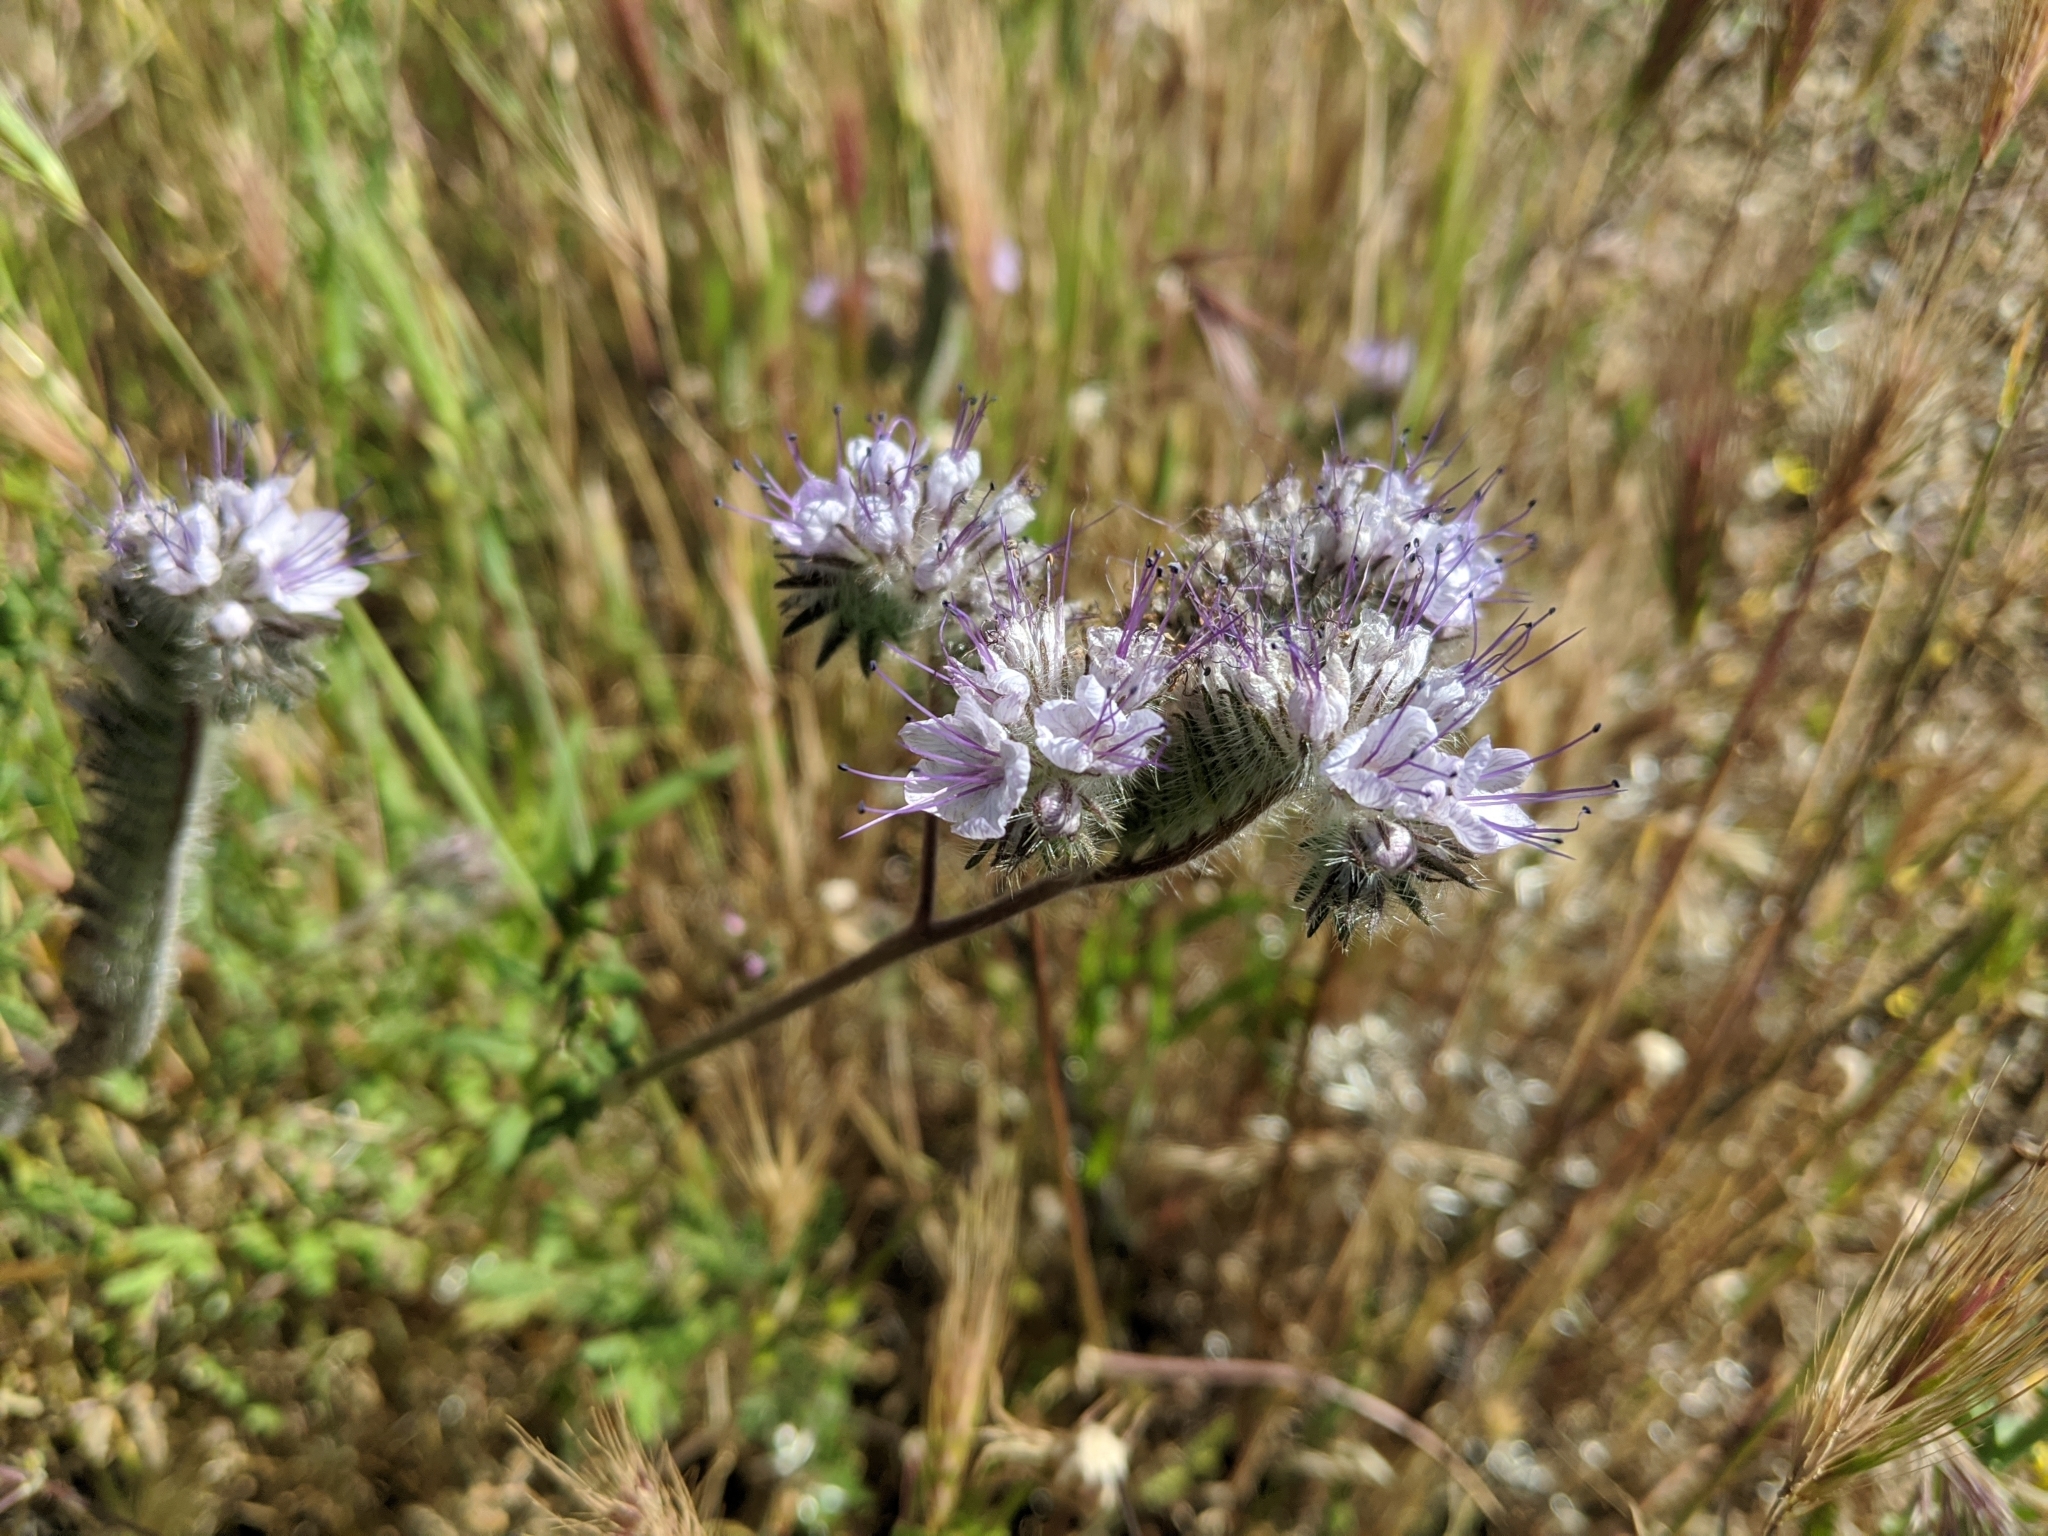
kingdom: Plantae
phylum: Tracheophyta
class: Magnoliopsida
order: Boraginales
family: Hydrophyllaceae
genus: Phacelia
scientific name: Phacelia tanacetifolia
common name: Phacelia
